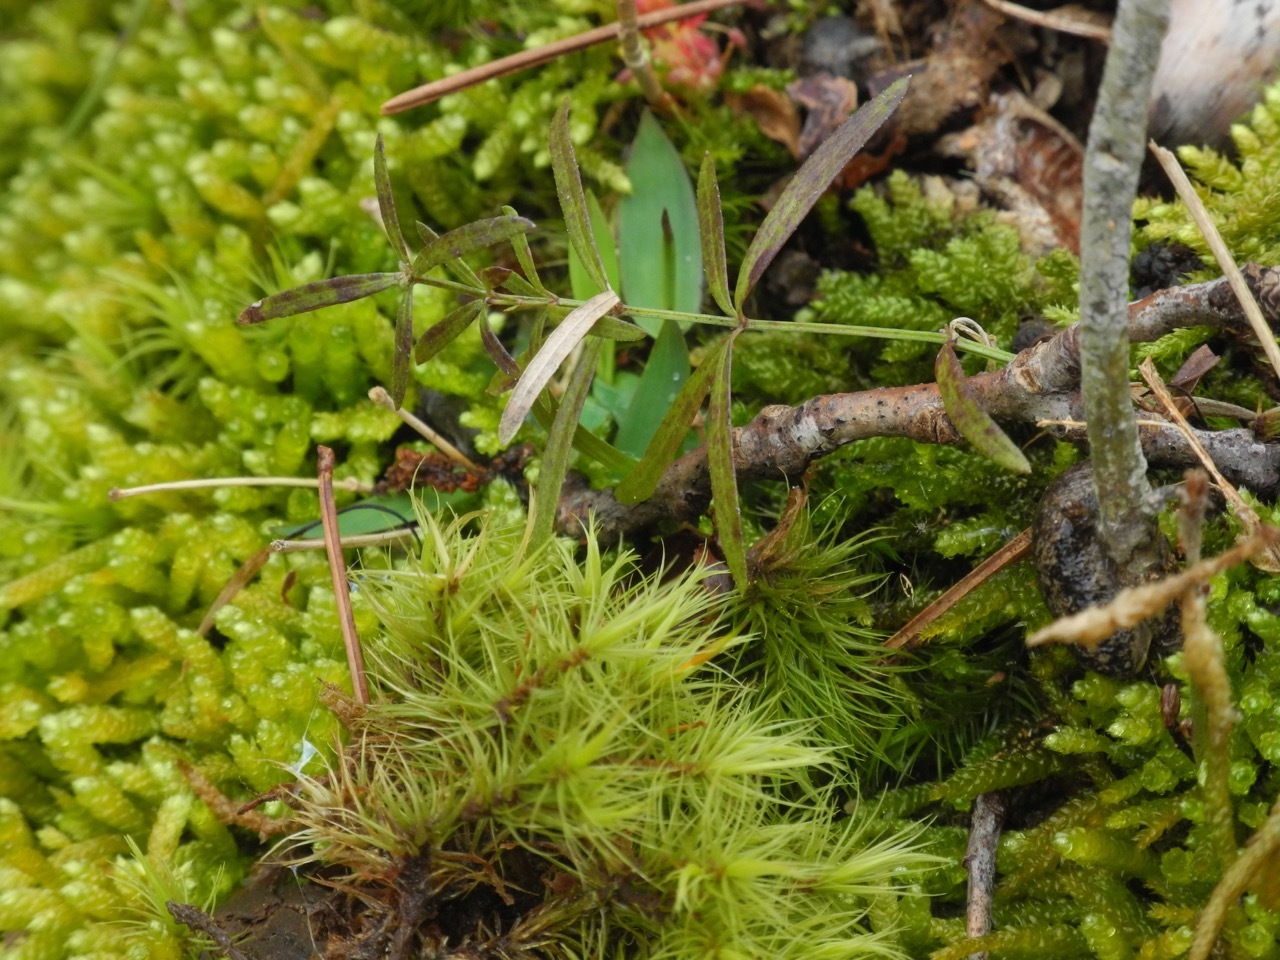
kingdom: Plantae
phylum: Tracheophyta
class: Magnoliopsida
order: Gentianales
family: Rubiaceae
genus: Galium
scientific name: Galium uniflorum
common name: One-flower bedstraw
